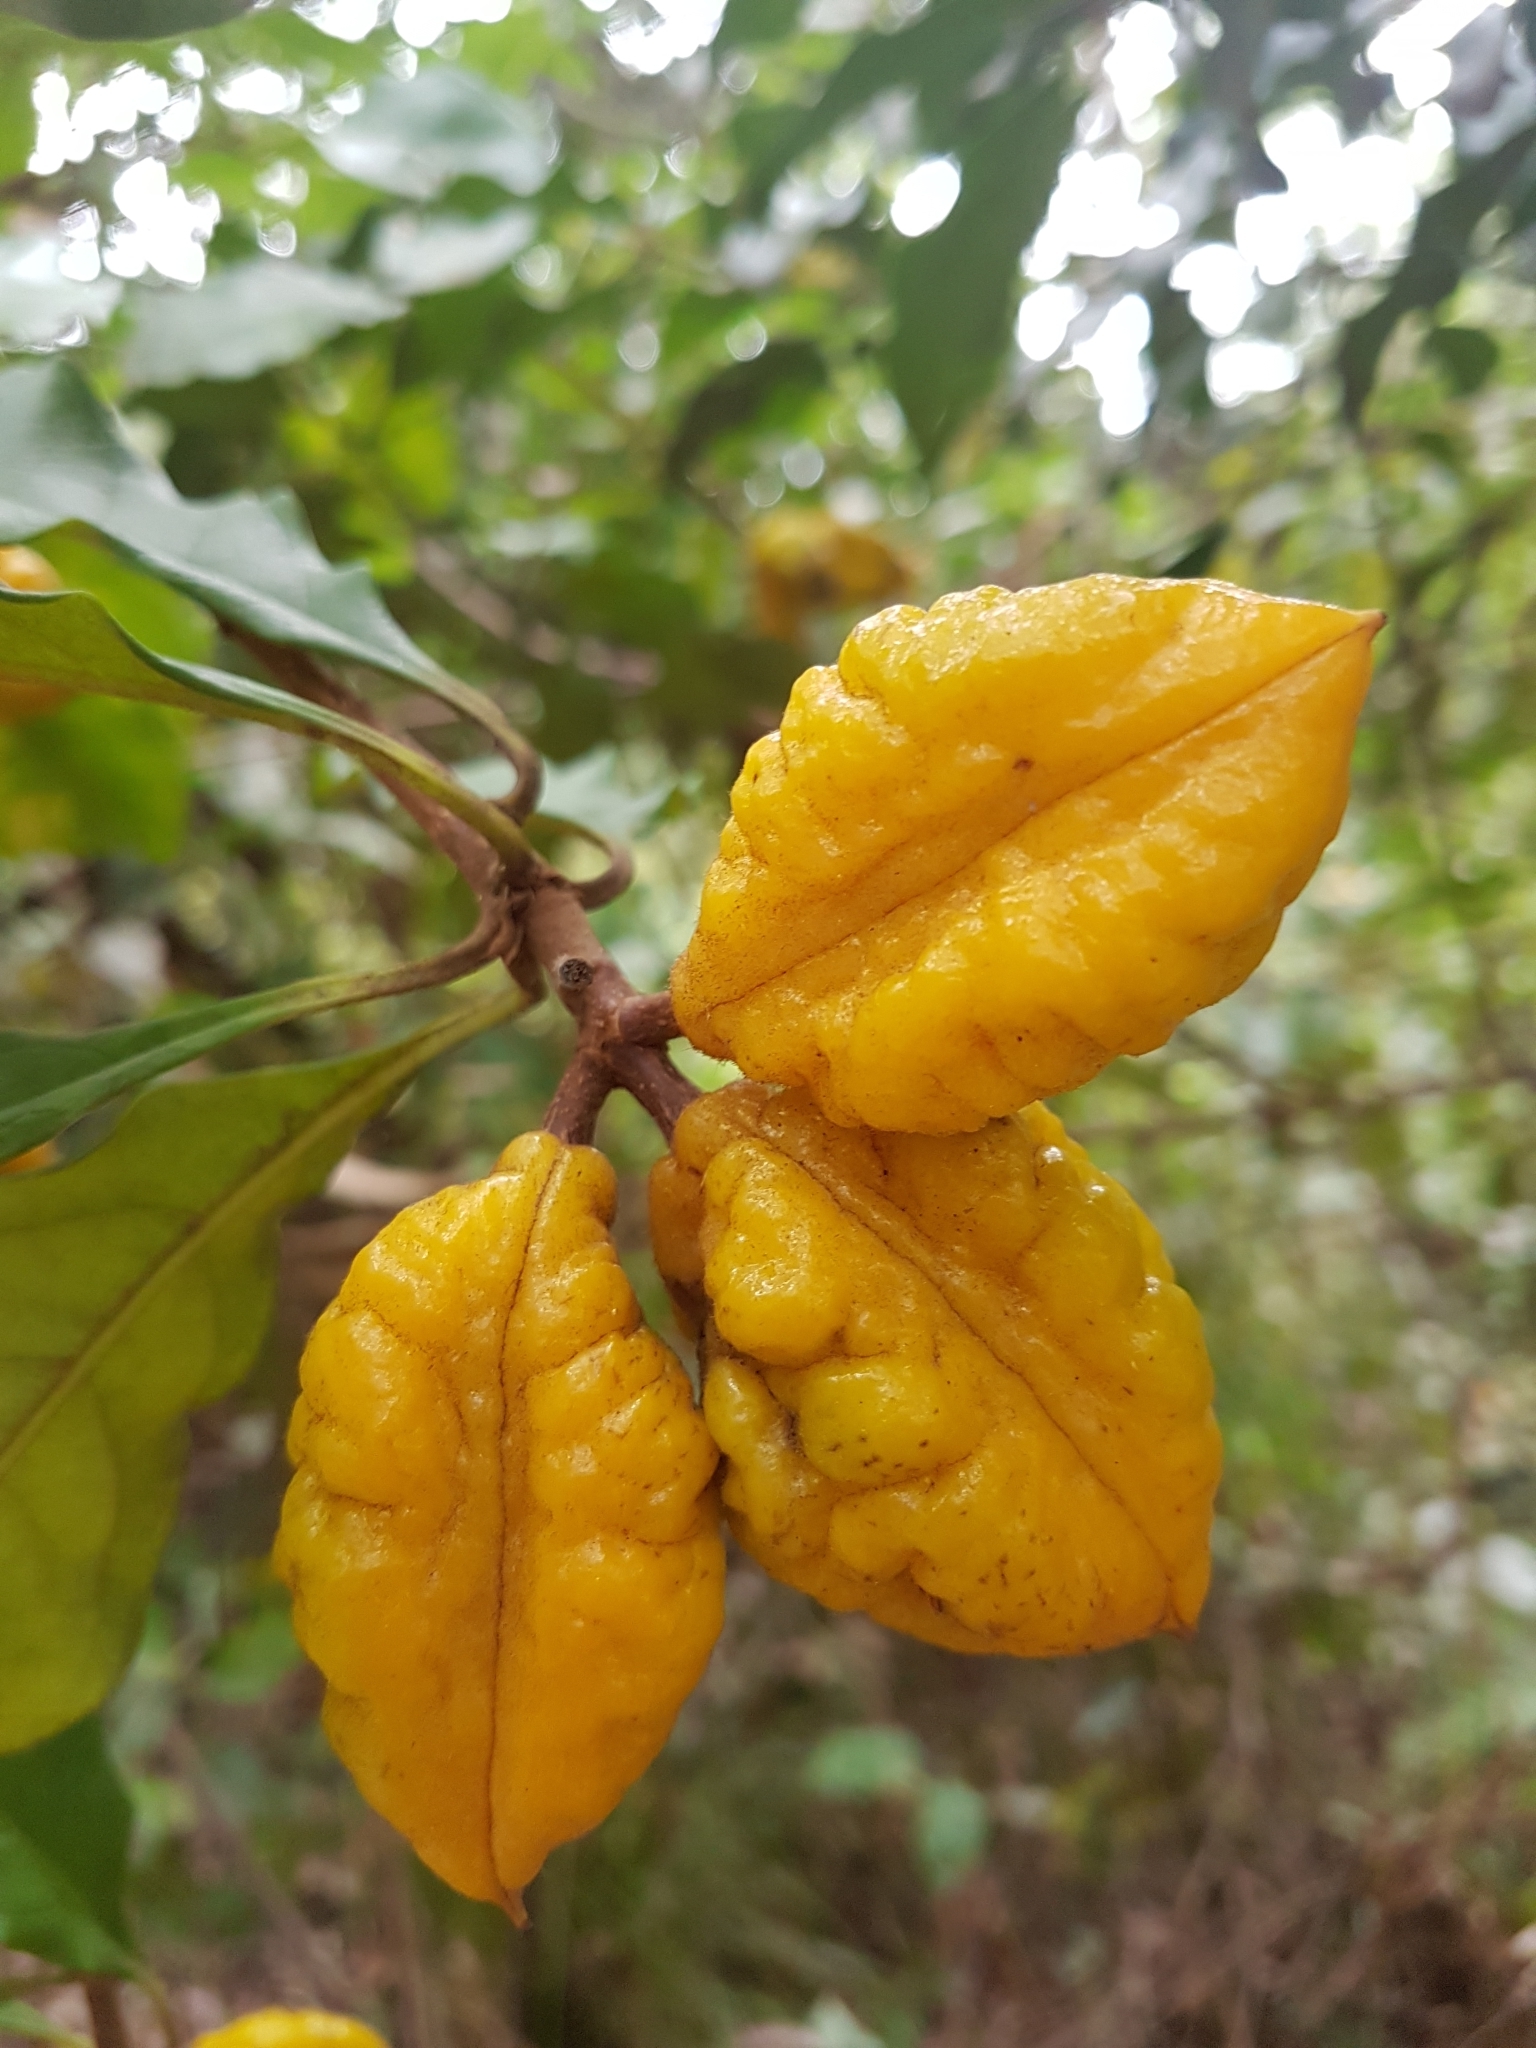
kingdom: Plantae
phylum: Tracheophyta
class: Magnoliopsida
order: Apiales
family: Pittosporaceae
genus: Pittosporum
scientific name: Pittosporum revolutum
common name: Brisbane-laurel
